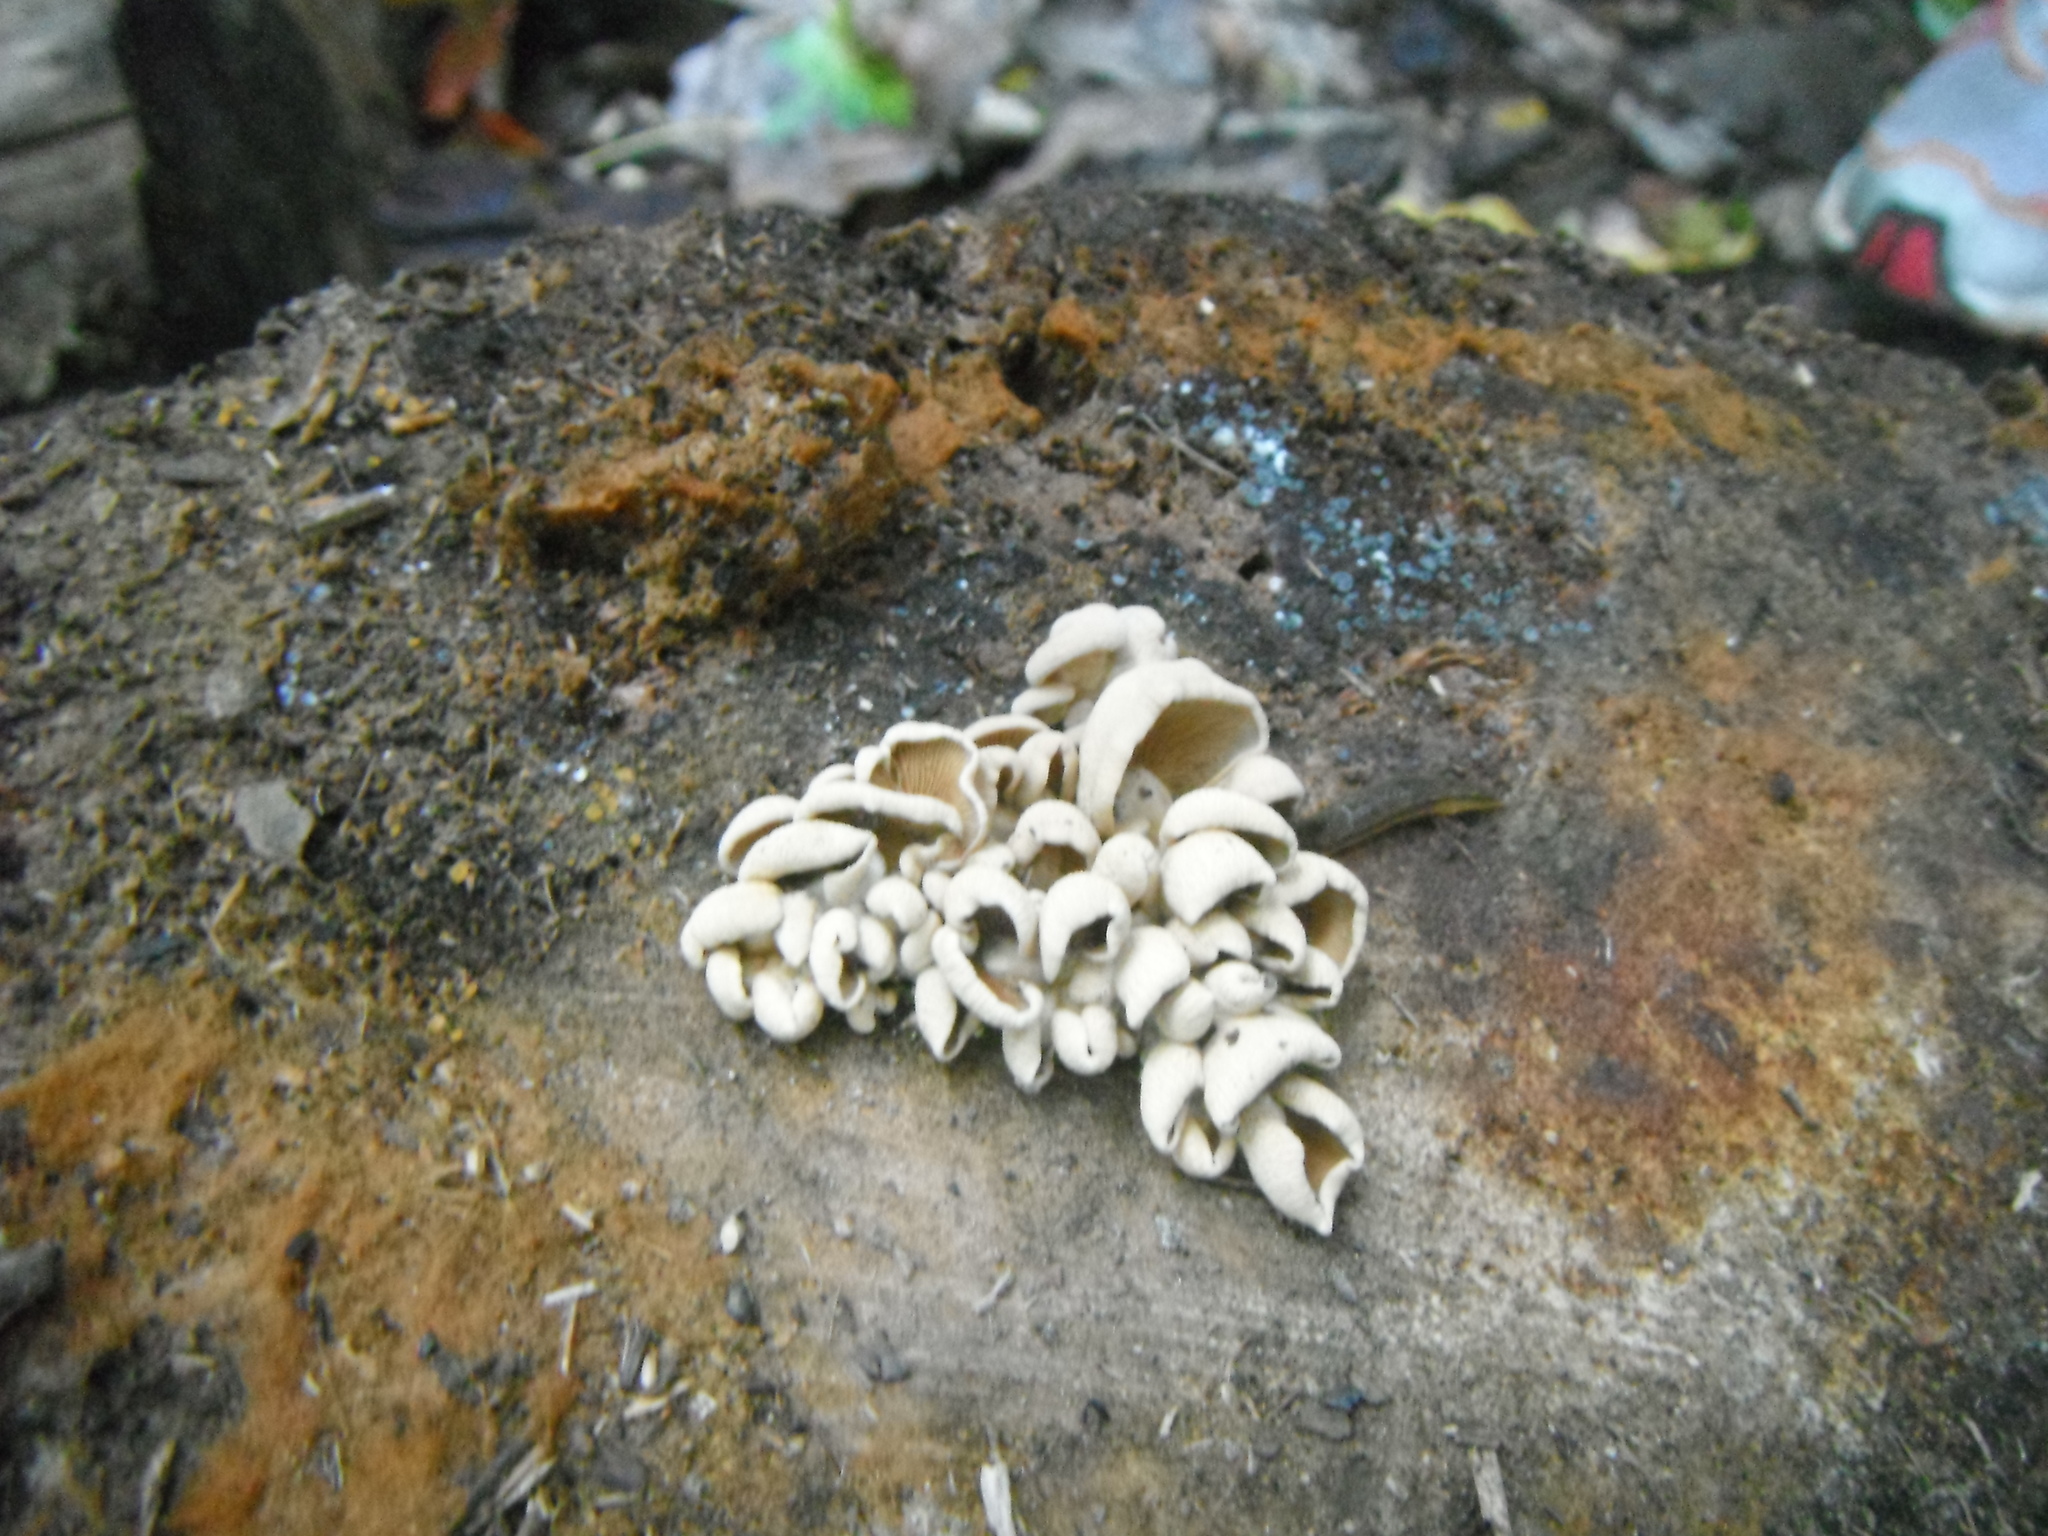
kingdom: Fungi
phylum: Basidiomycota
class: Agaricomycetes
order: Agaricales
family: Mycenaceae
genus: Panellus
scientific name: Panellus stipticus
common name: Bitter oysterling
